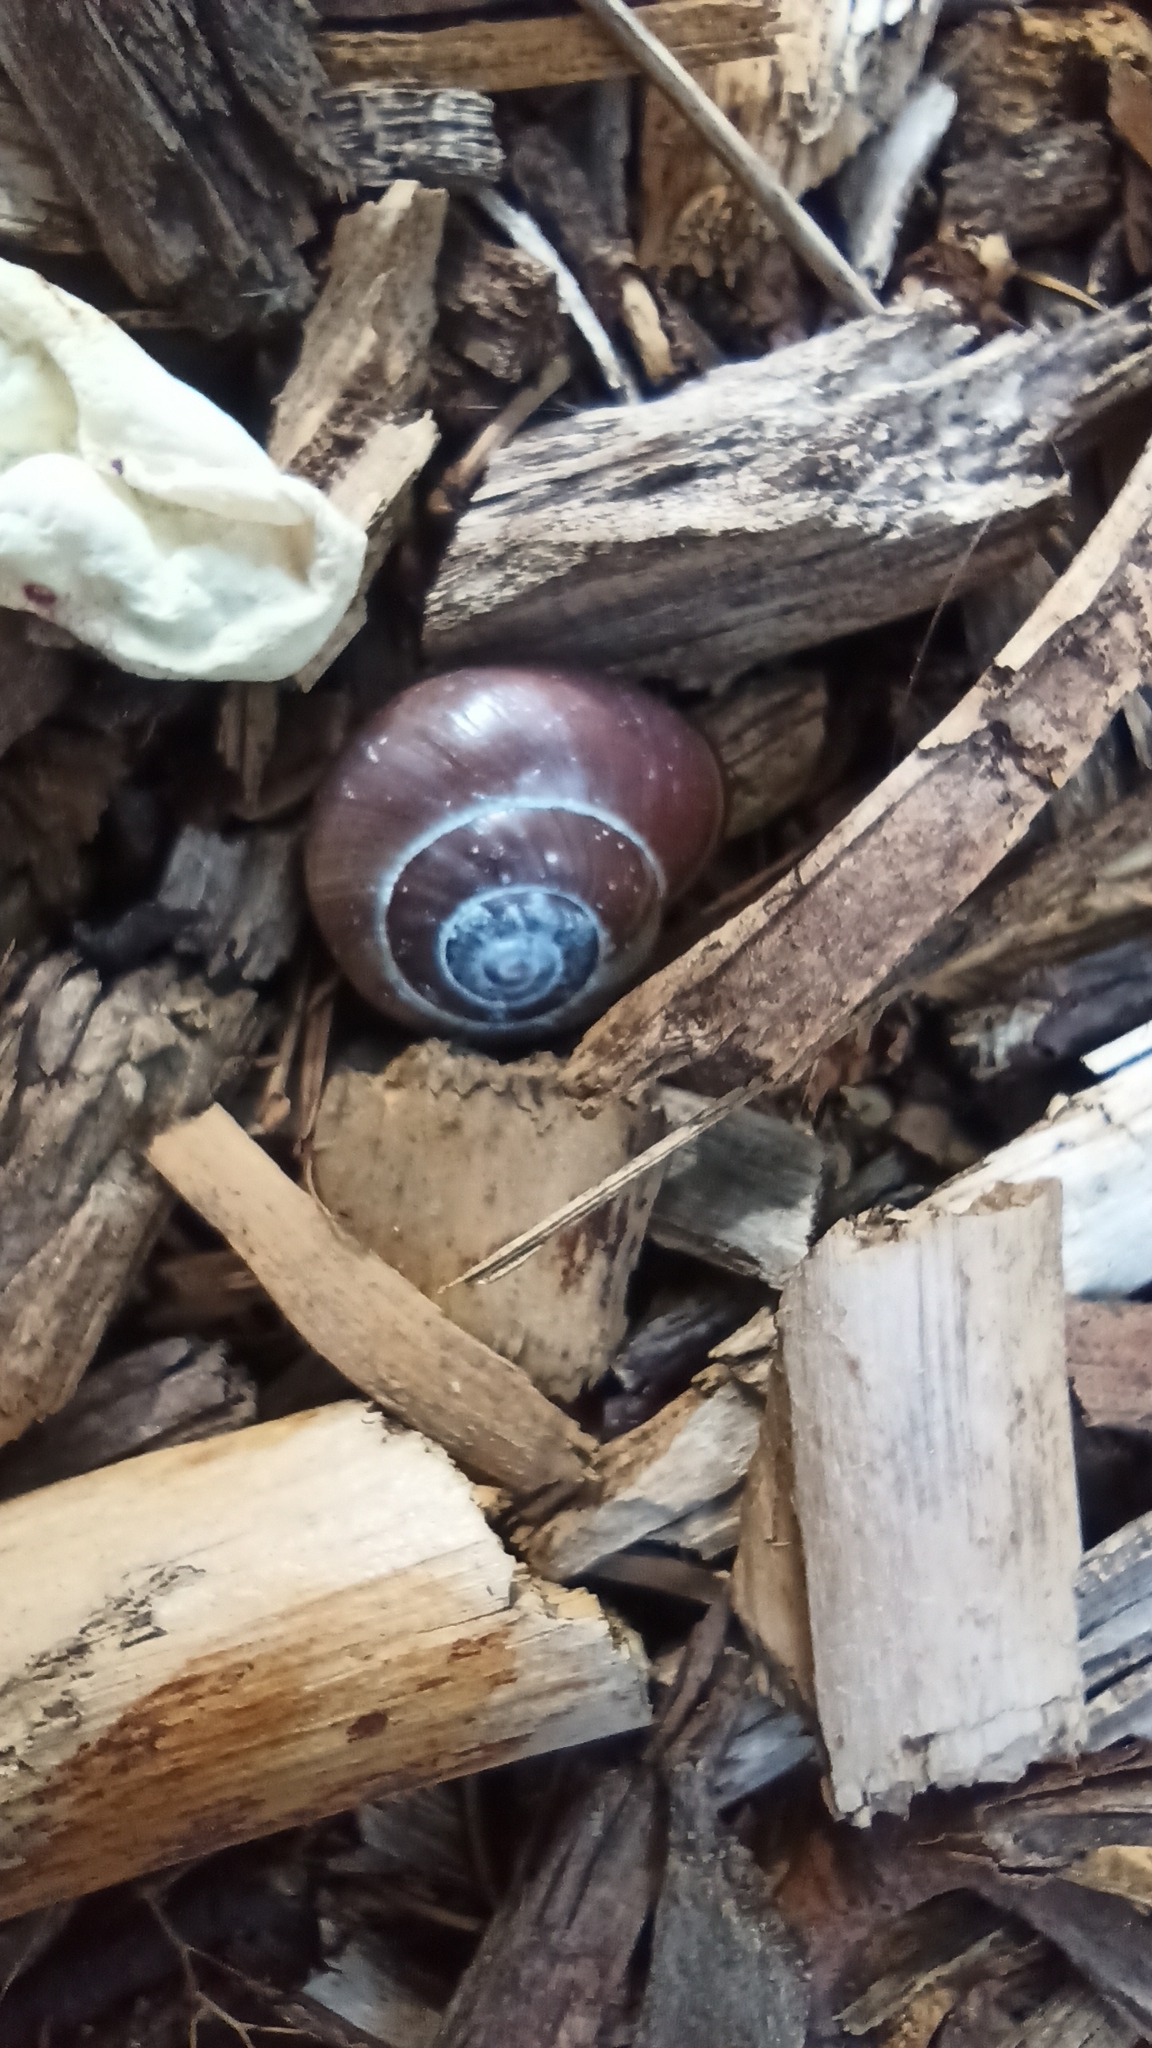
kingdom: Animalia
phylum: Mollusca
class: Gastropoda
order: Stylommatophora
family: Helicidae
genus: Cepaea
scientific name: Cepaea nemoralis
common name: Grovesnail
